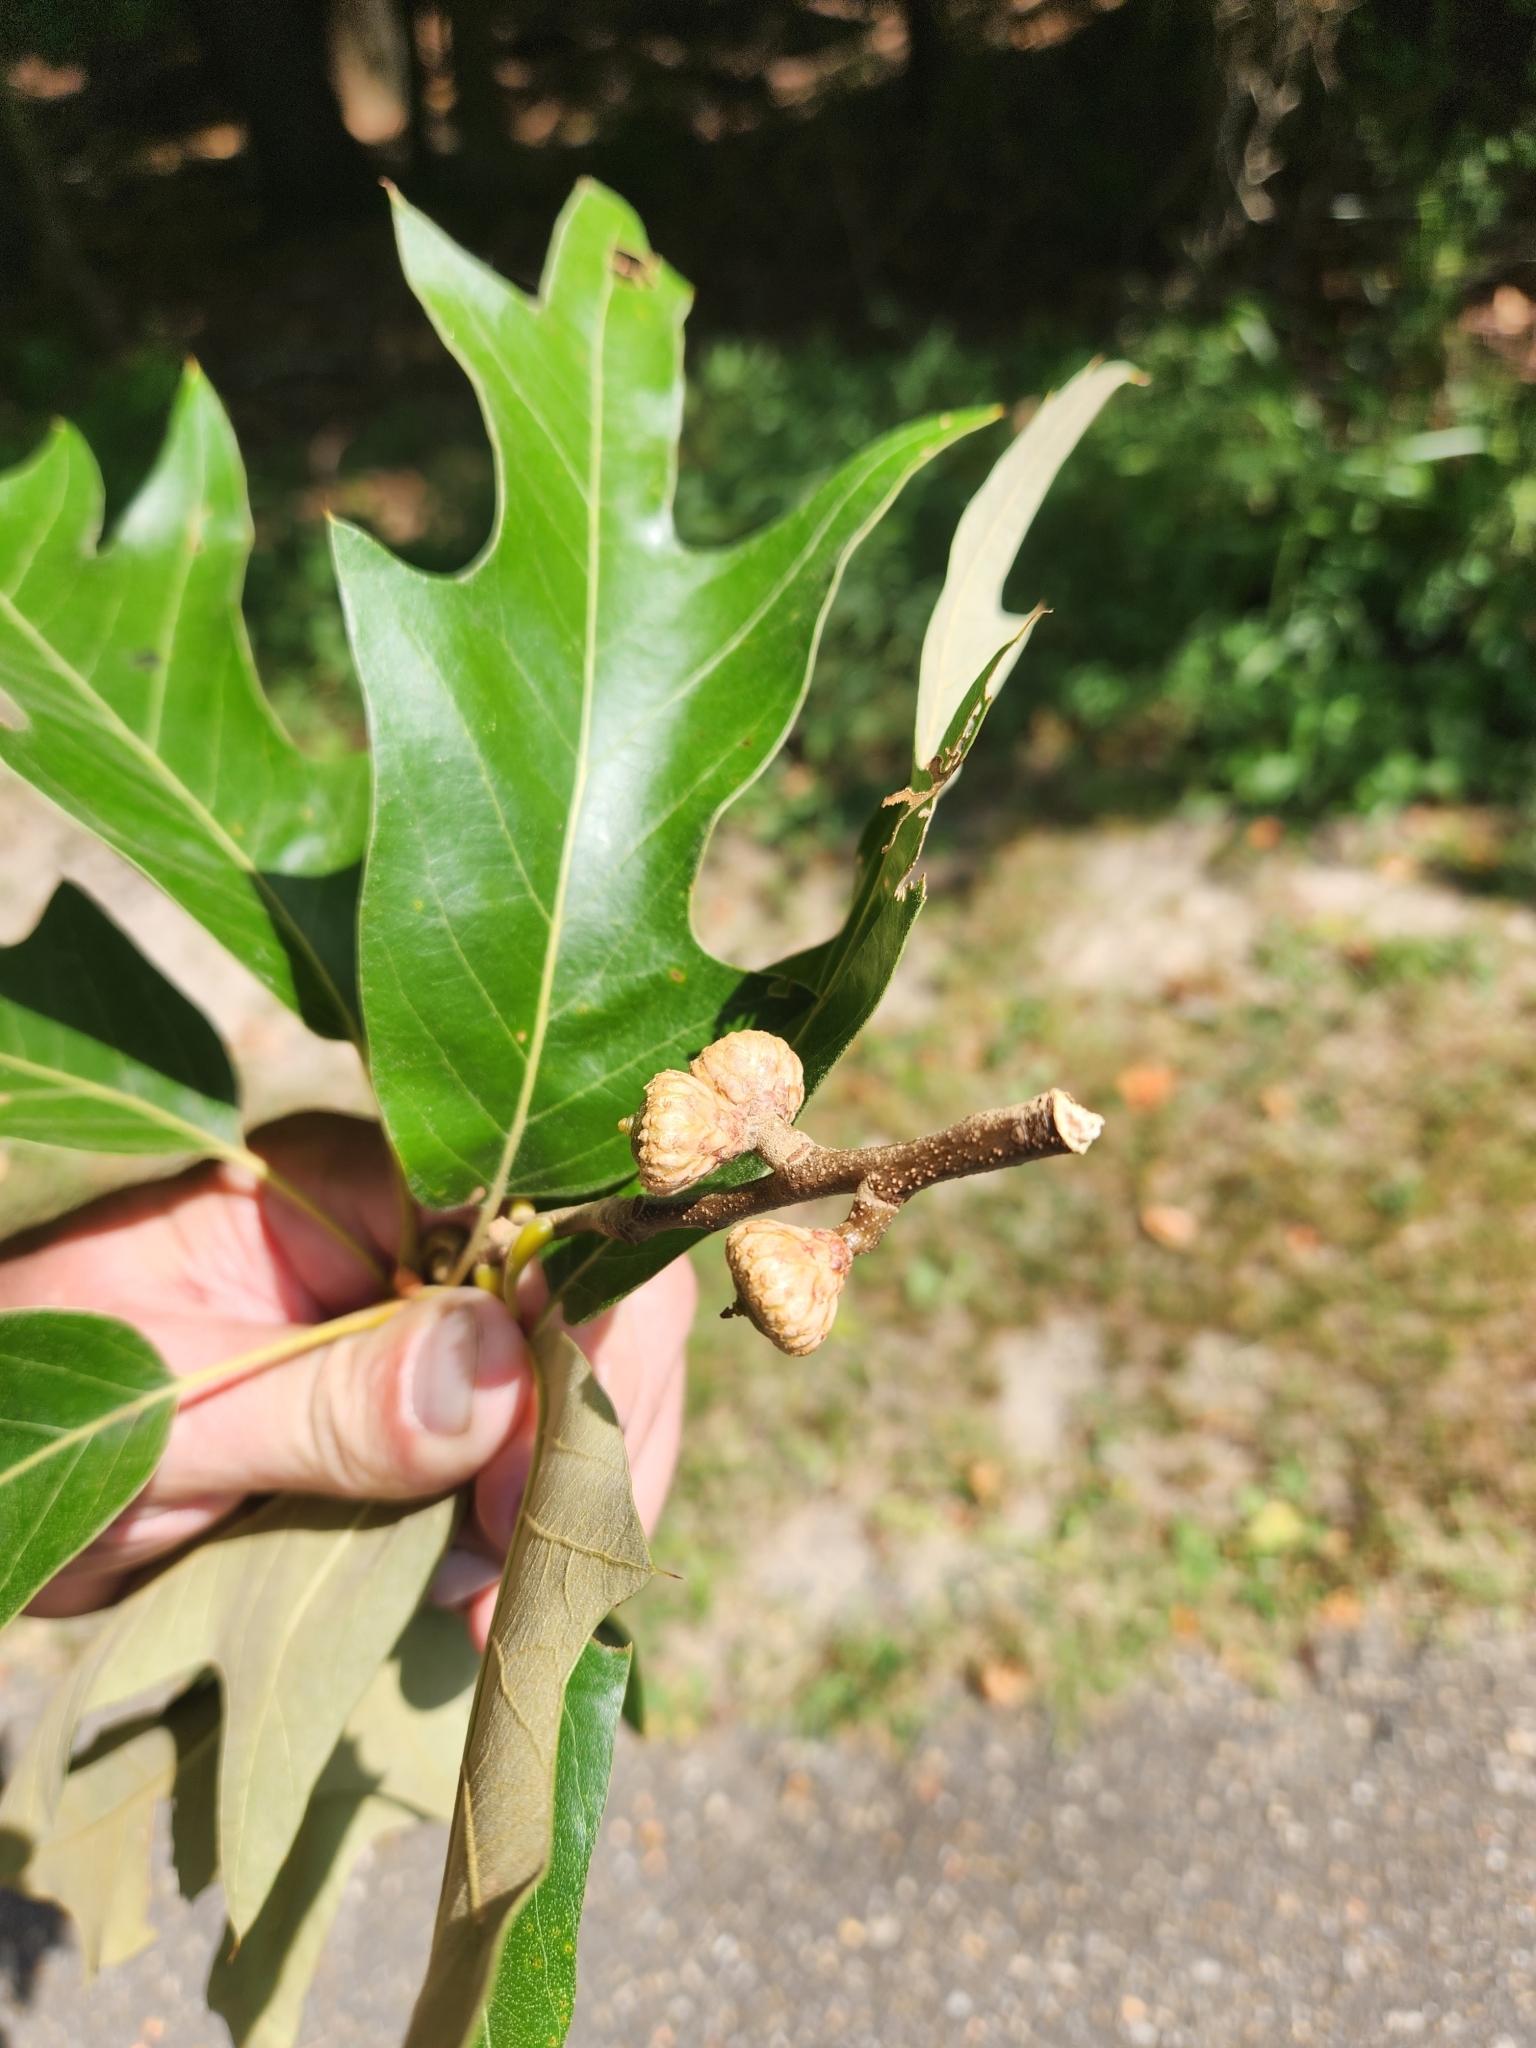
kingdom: Plantae
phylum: Tracheophyta
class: Magnoliopsida
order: Fagales
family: Fagaceae
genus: Quercus
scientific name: Quercus falcata
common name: Southern red oak
